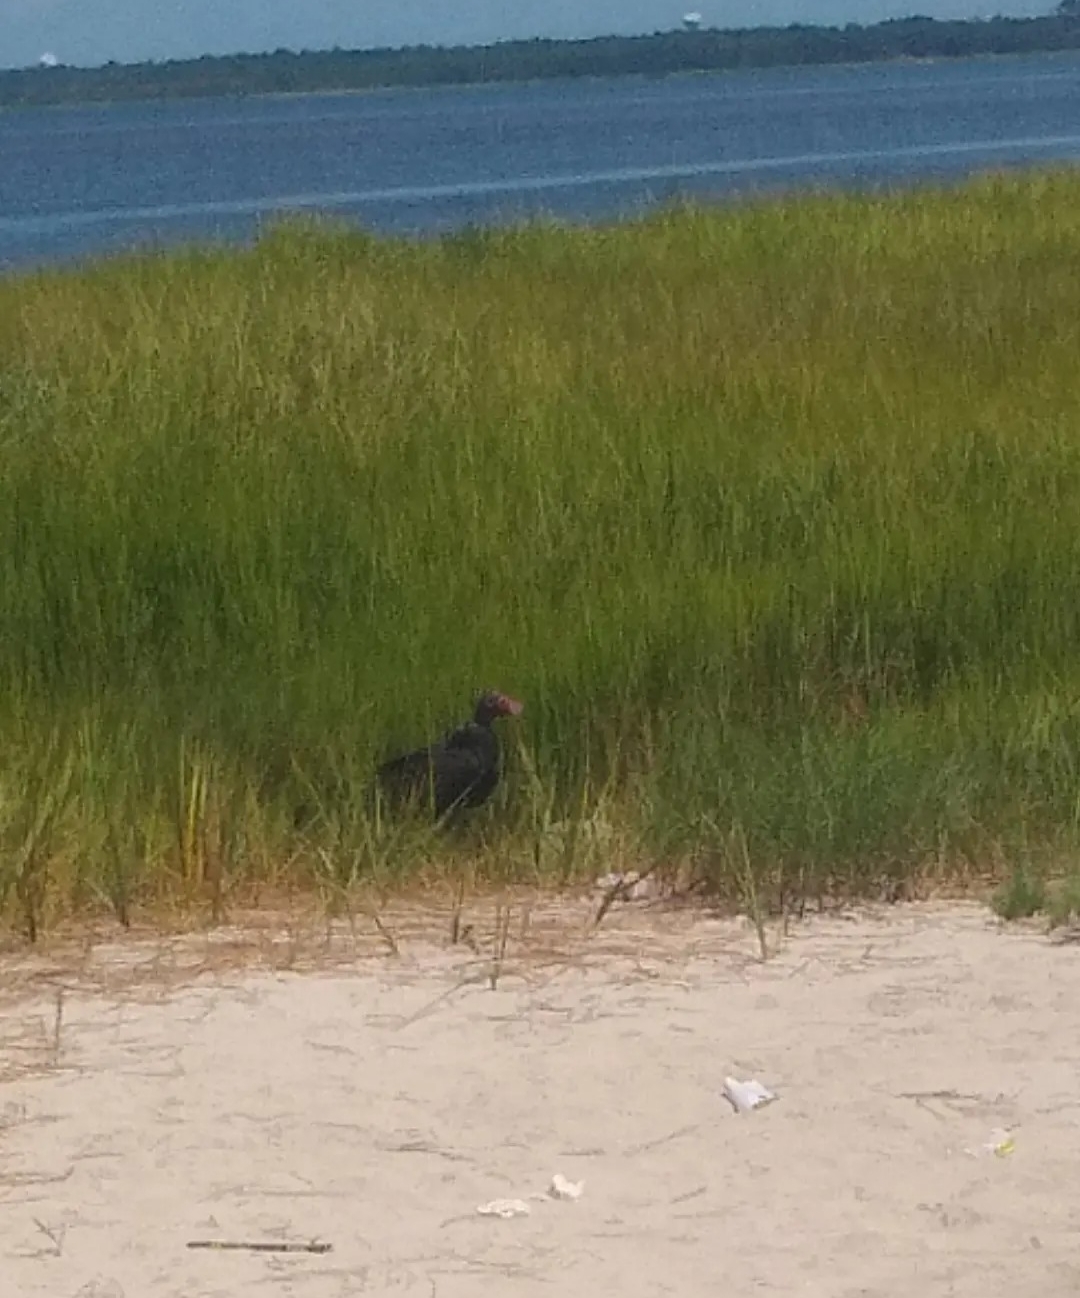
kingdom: Animalia
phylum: Chordata
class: Aves
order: Accipitriformes
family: Cathartidae
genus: Cathartes
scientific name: Cathartes aura
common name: Turkey vulture
